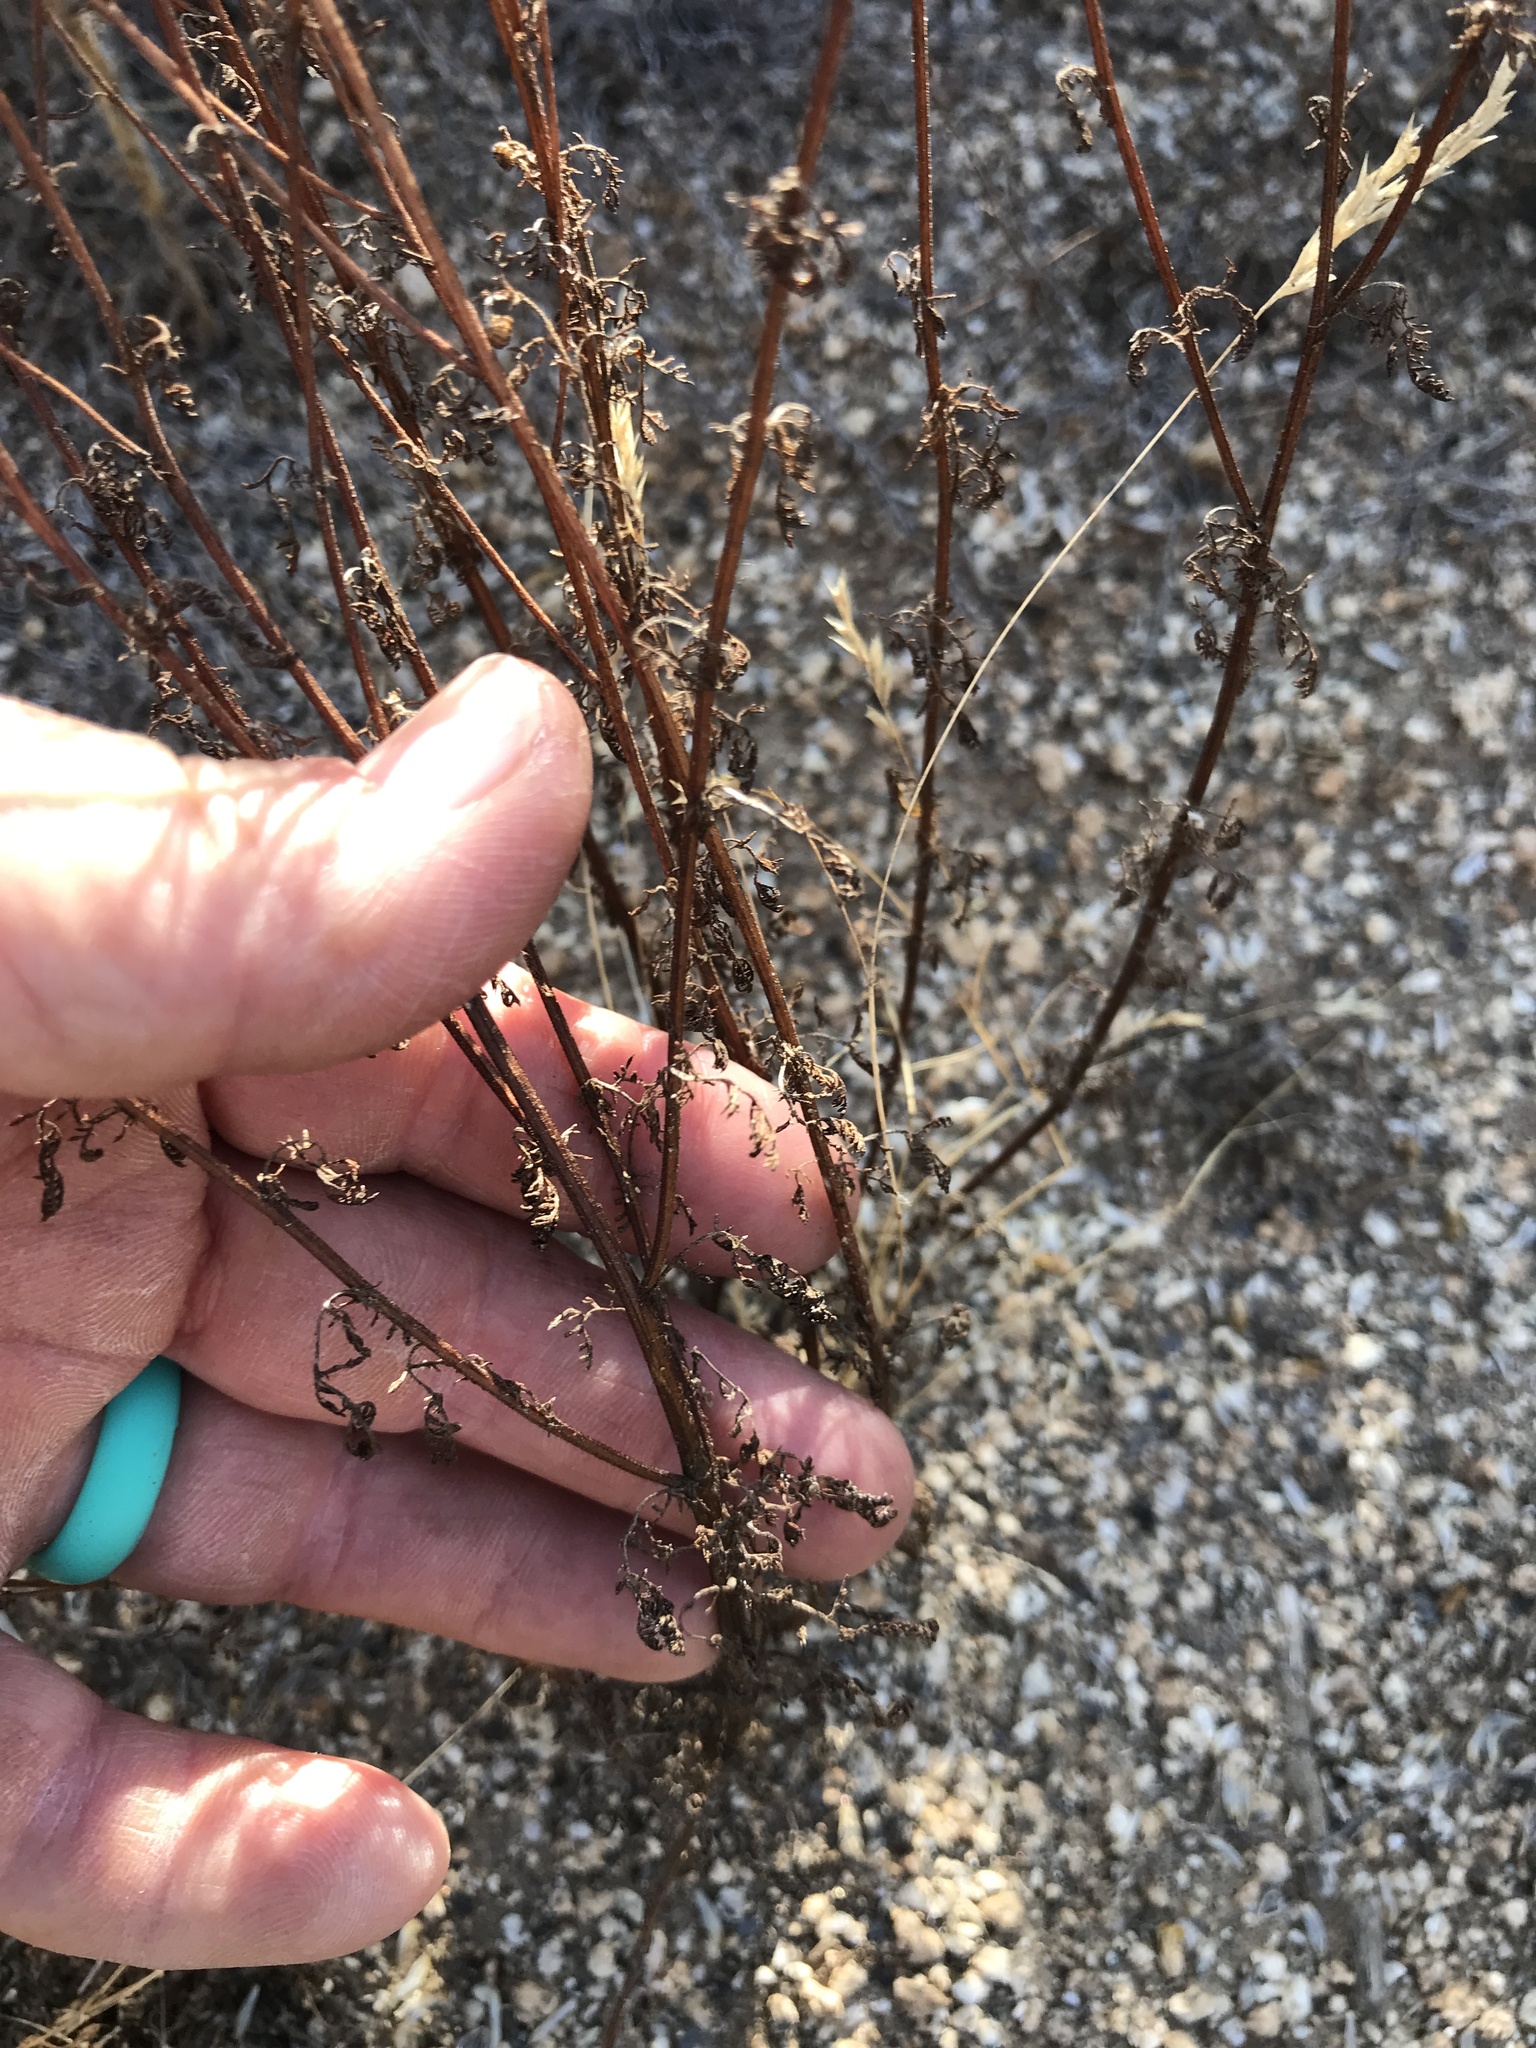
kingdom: Plantae
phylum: Tracheophyta
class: Magnoliopsida
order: Asterales
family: Asteraceae
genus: Oncosiphon
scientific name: Oncosiphon pilulifer
